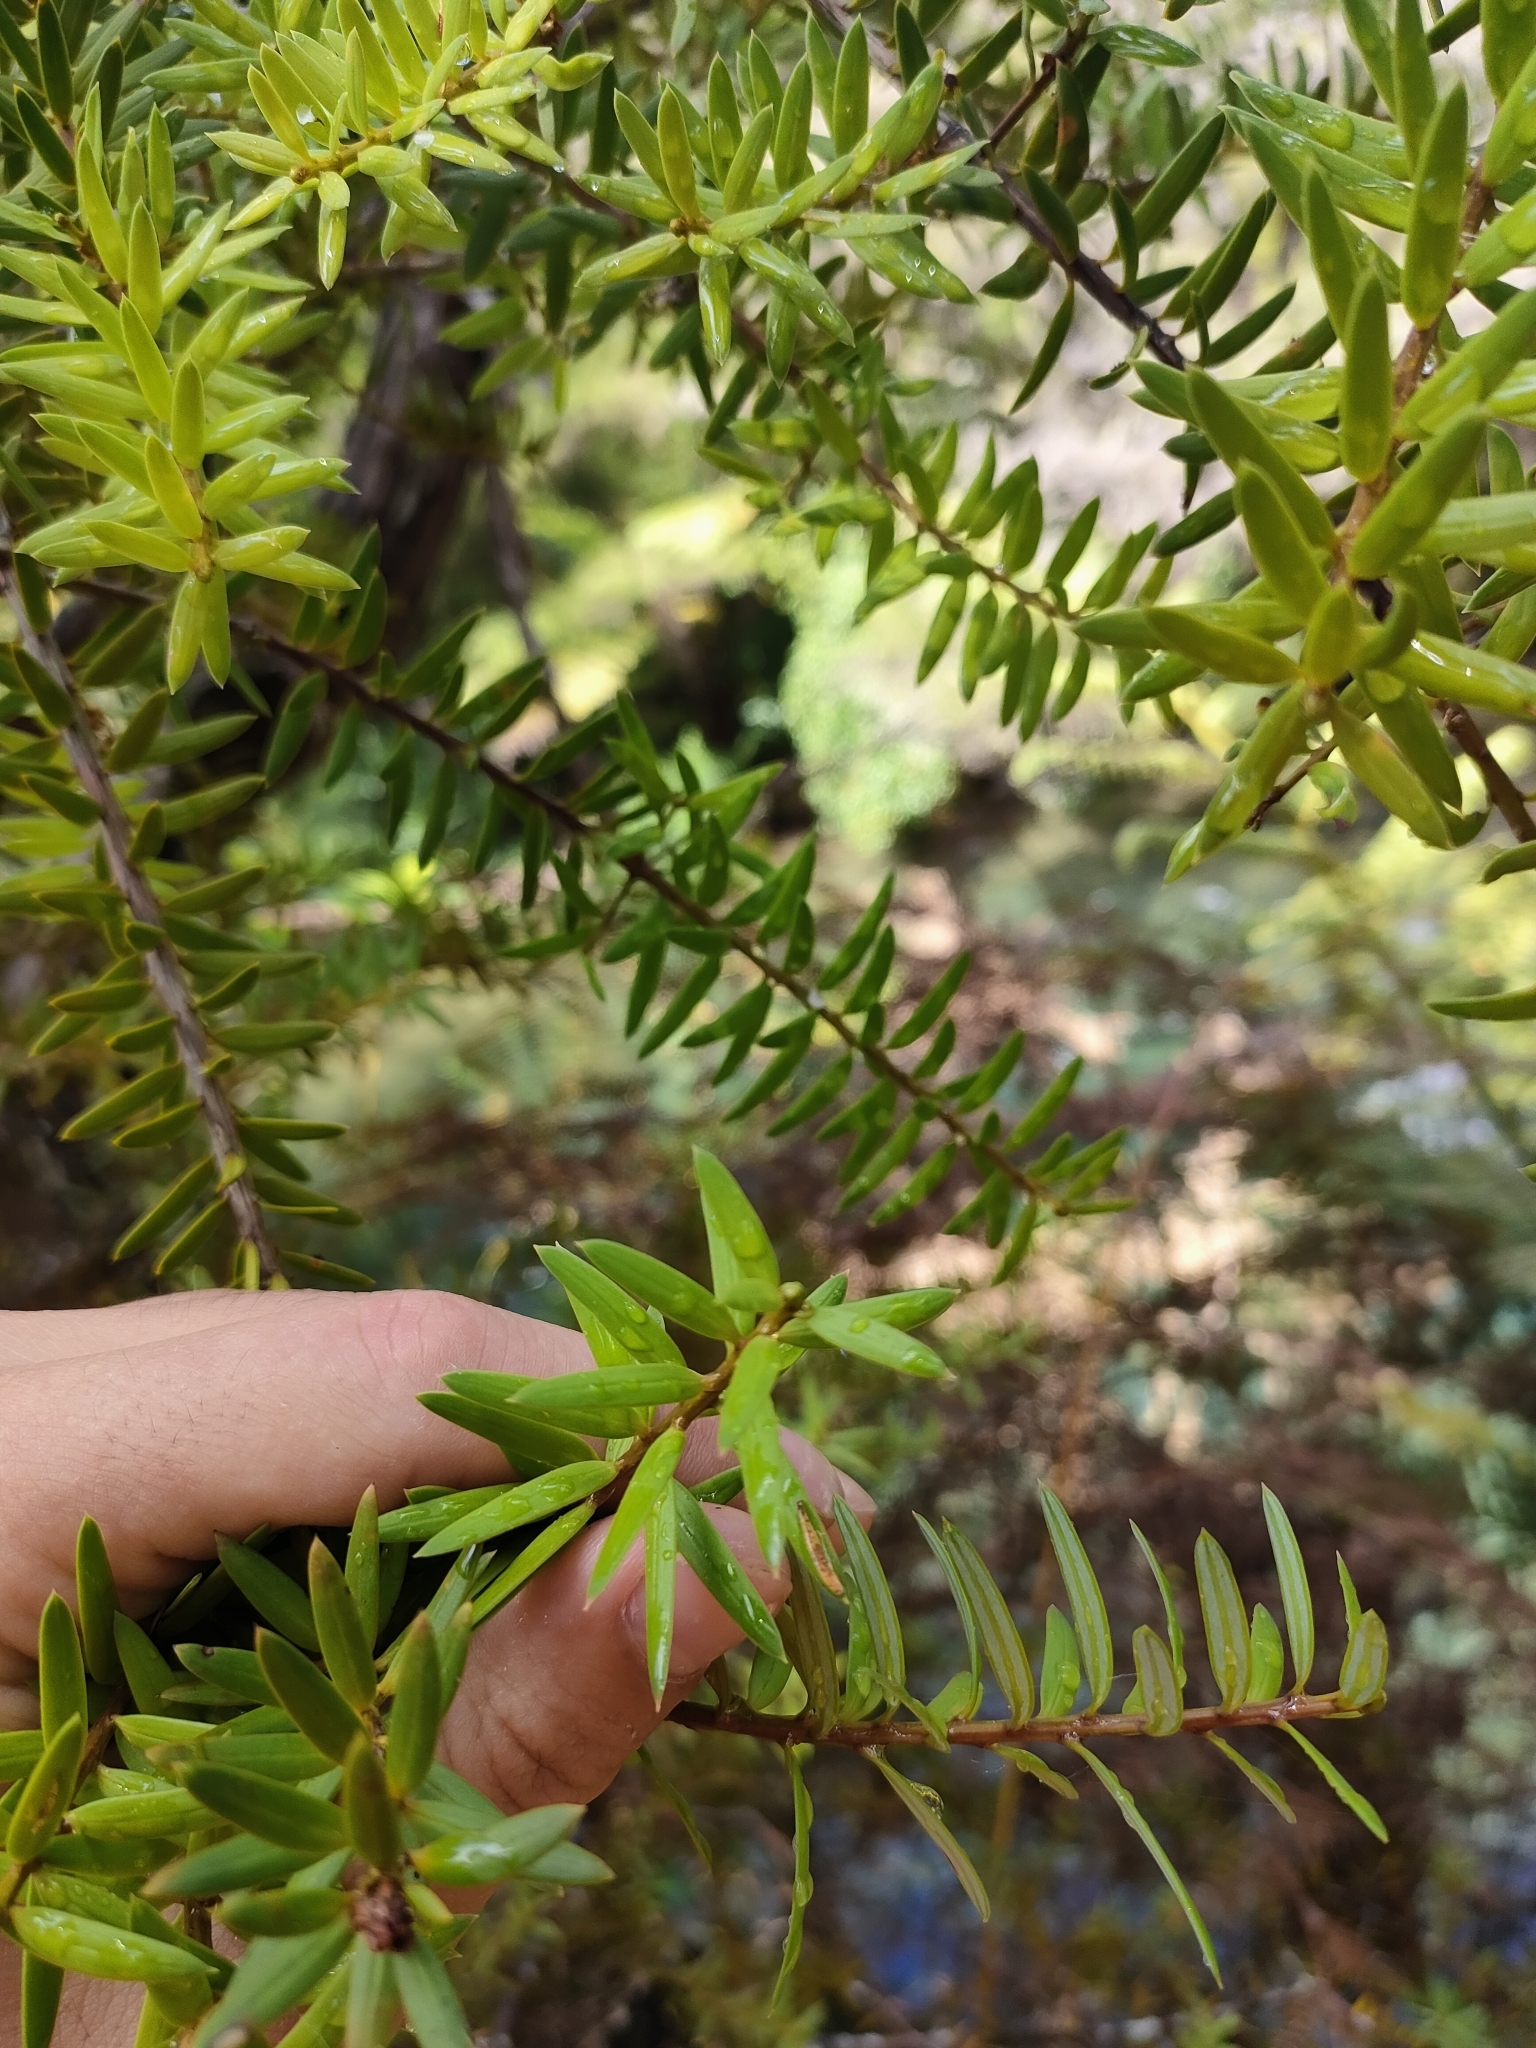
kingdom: Plantae
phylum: Tracheophyta
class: Pinopsida
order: Pinales
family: Podocarpaceae
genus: Podocarpus
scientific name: Podocarpus laetus
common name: Hall's totara
